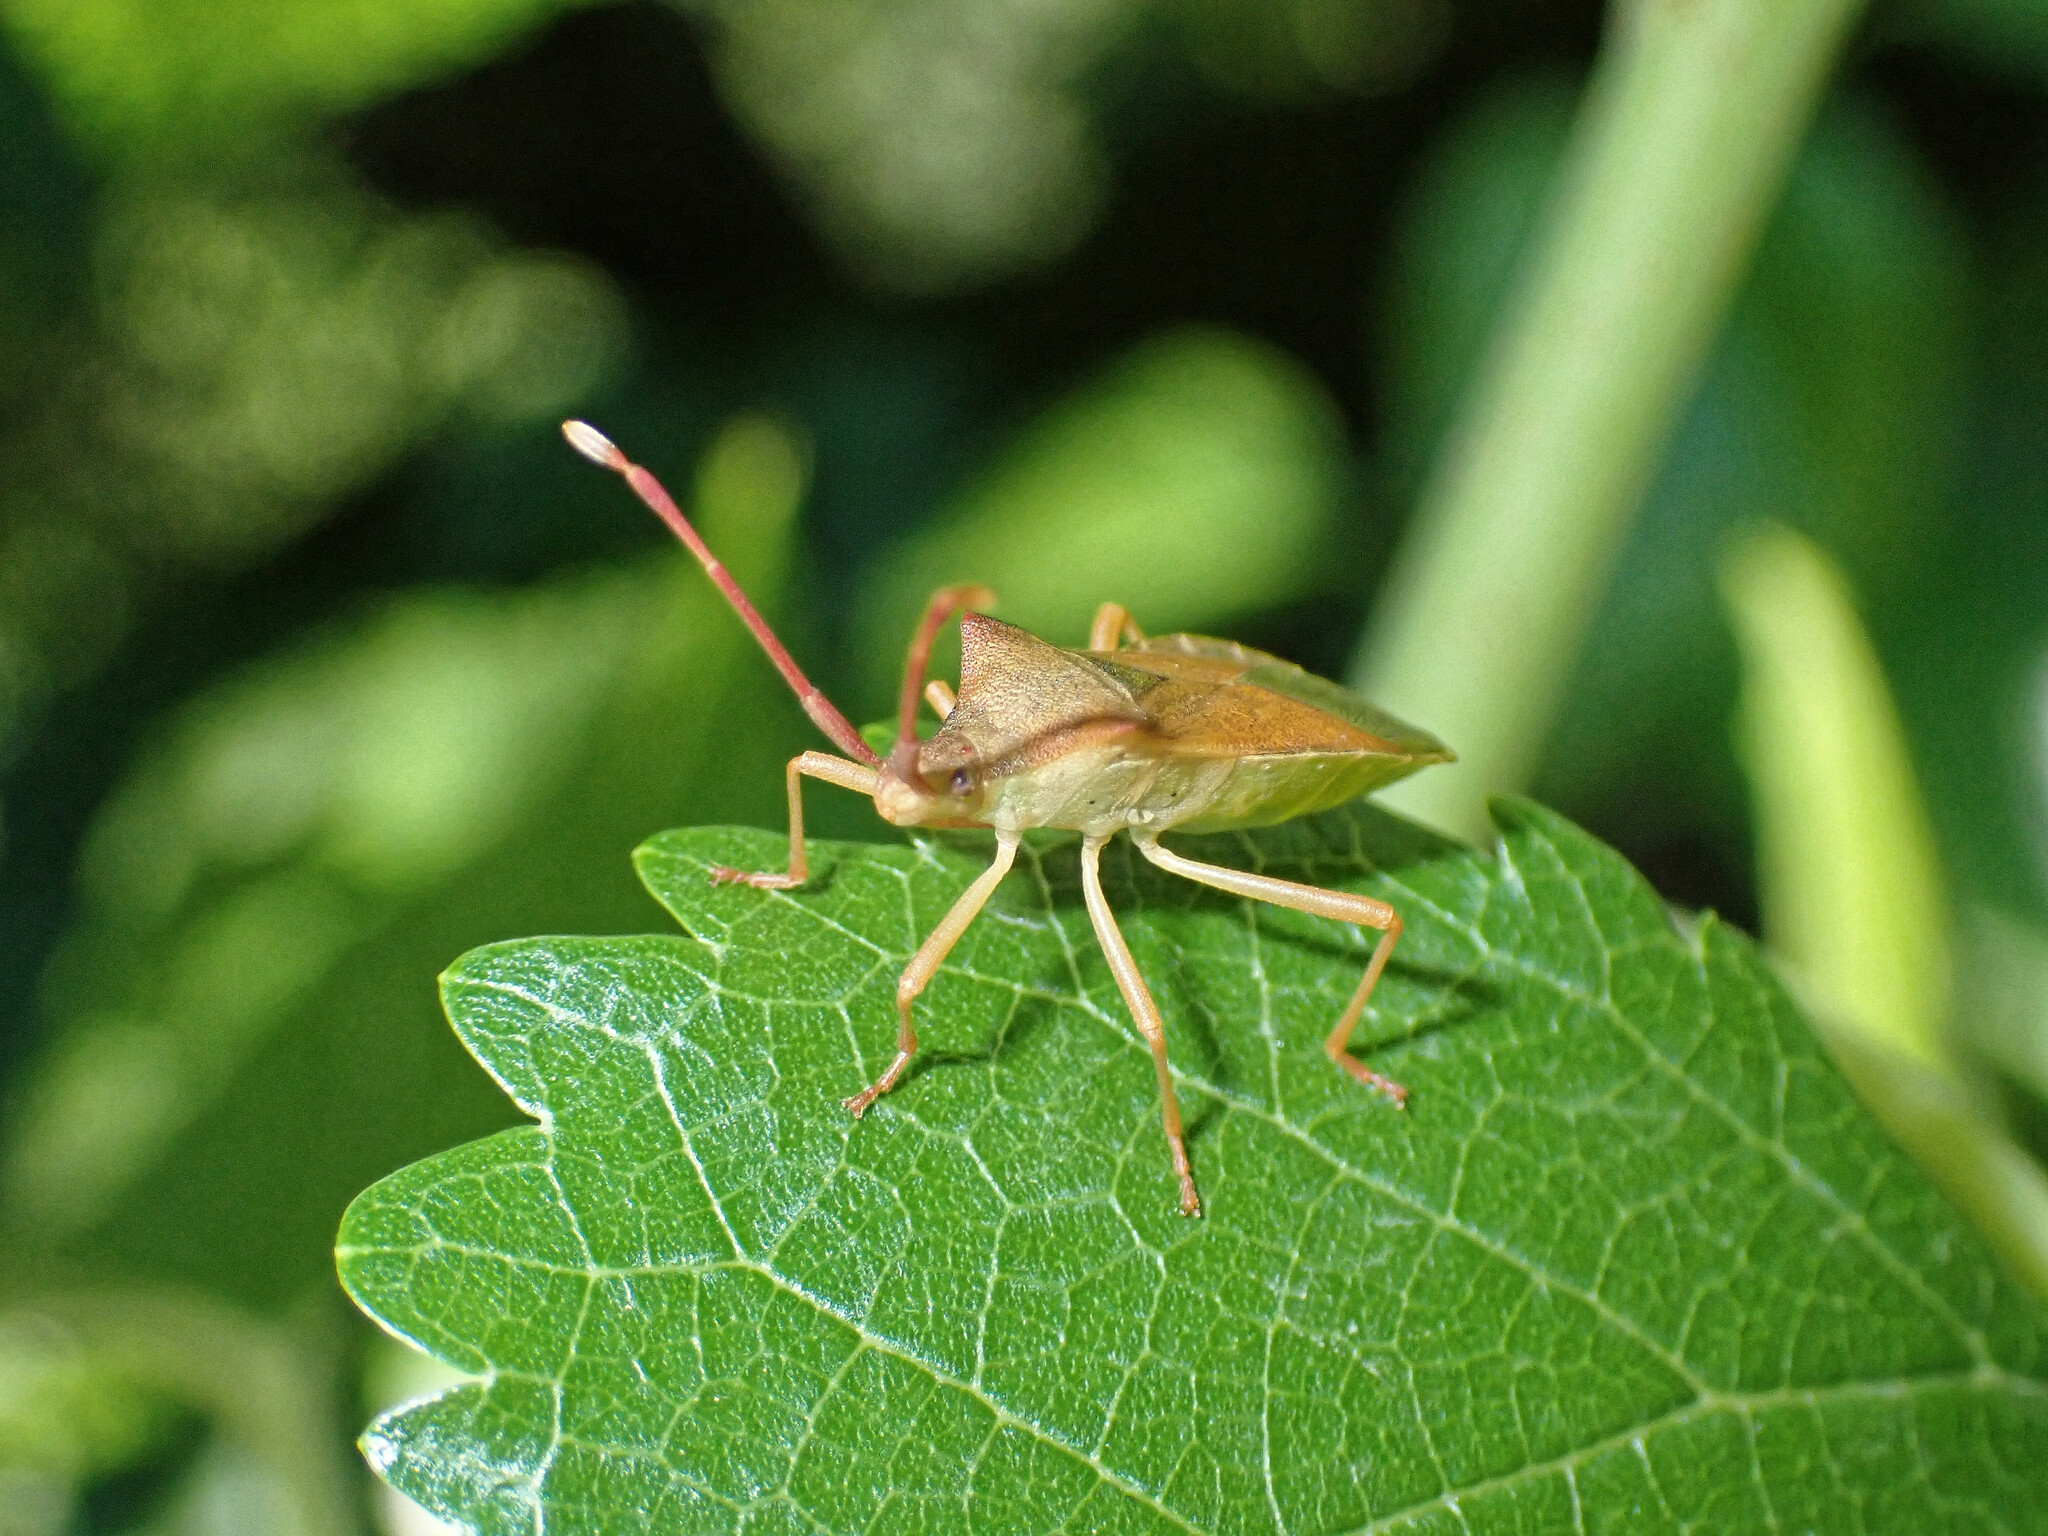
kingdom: Animalia
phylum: Arthropoda
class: Insecta
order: Hemiptera
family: Coreidae
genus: Gonocerus
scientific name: Gonocerus acuteangulatus
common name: Box bug
